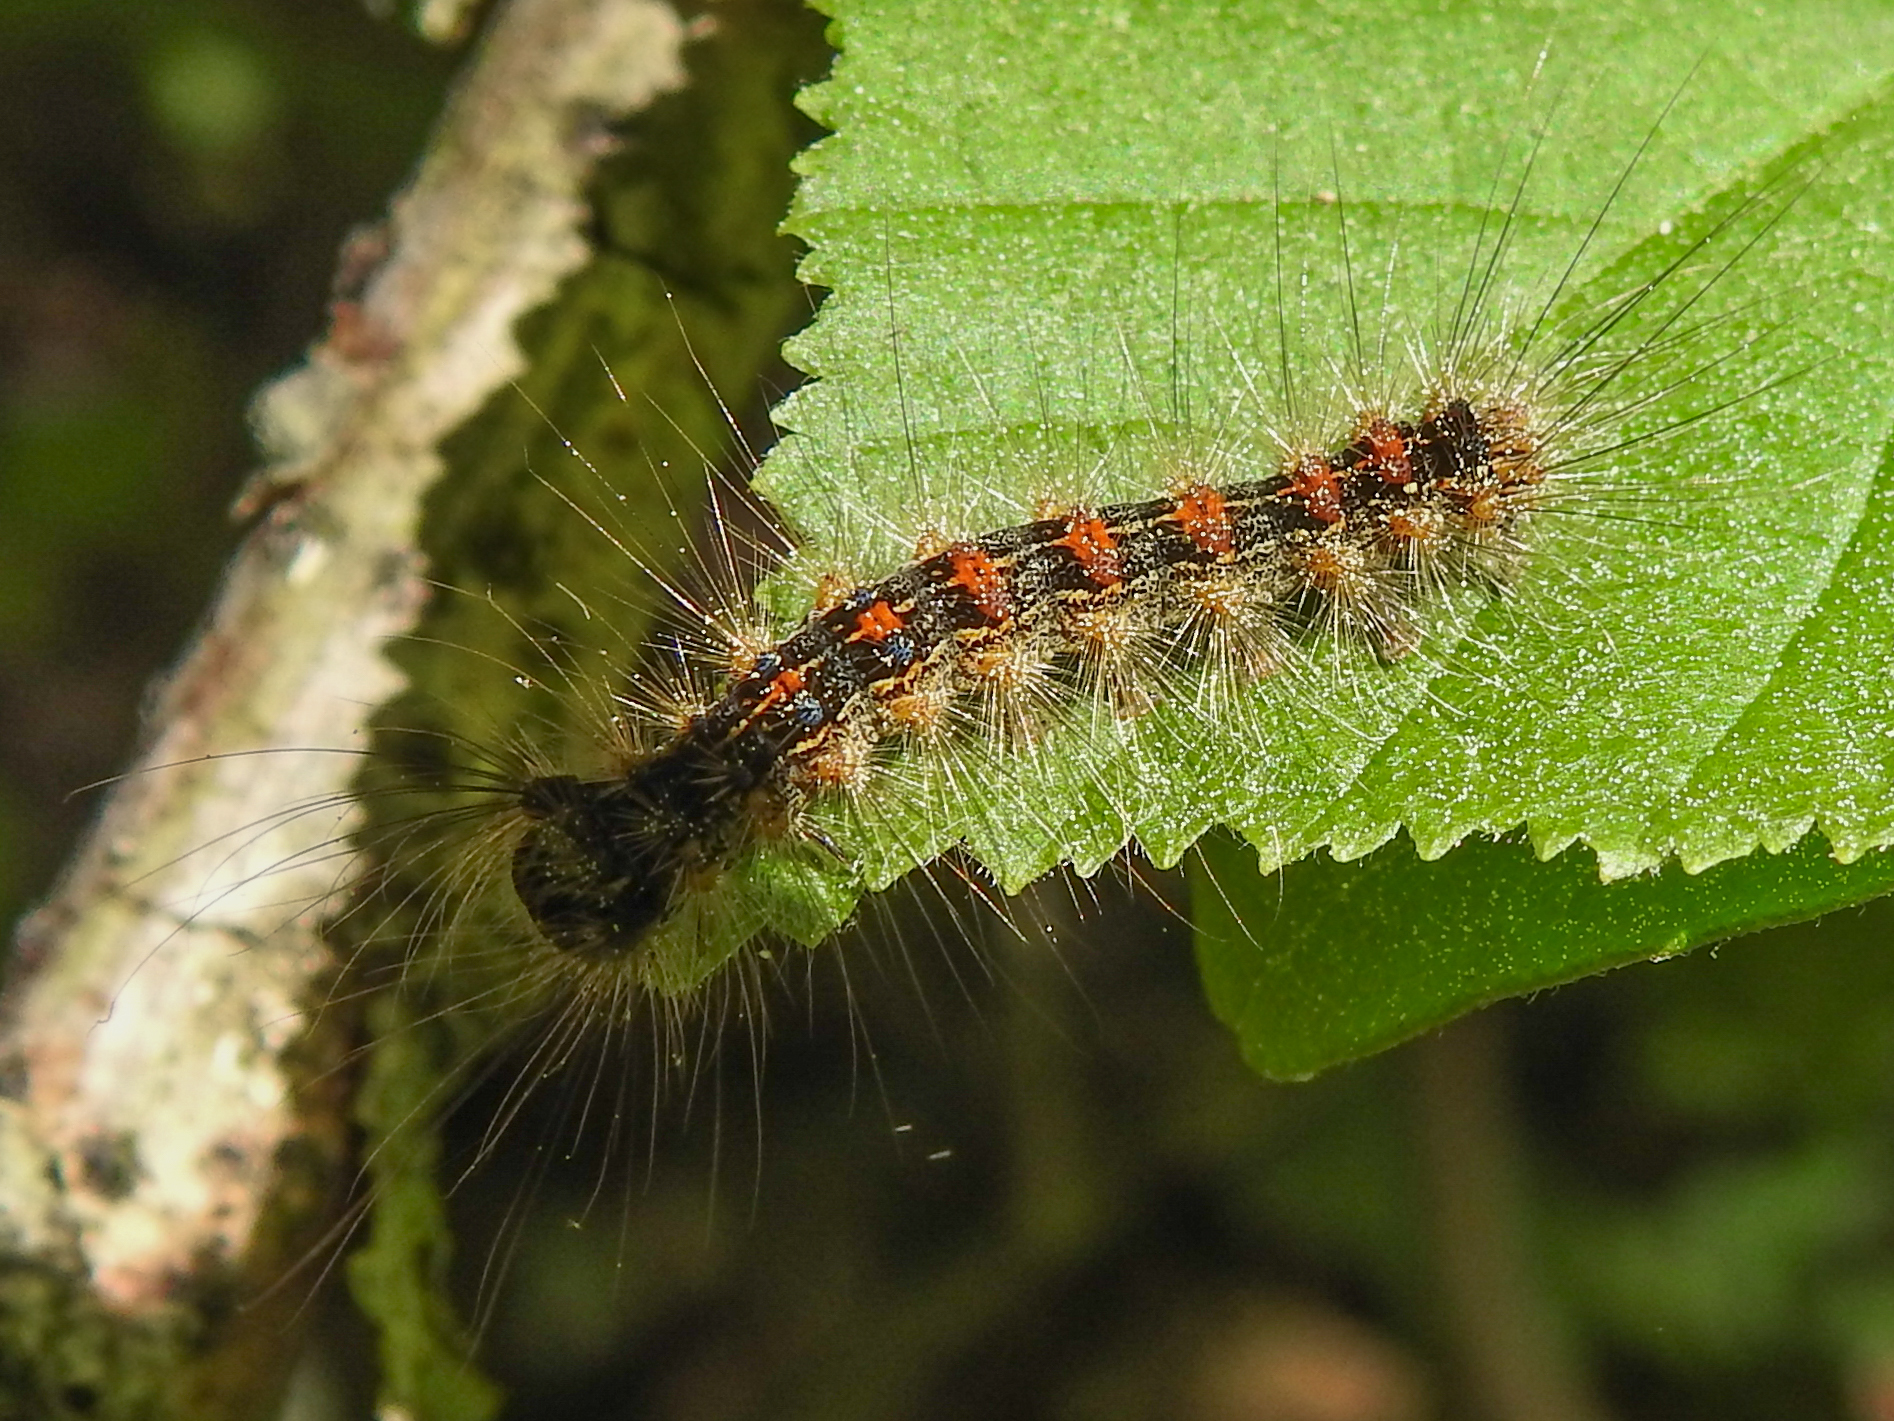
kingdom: Animalia
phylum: Arthropoda
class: Insecta
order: Lepidoptera
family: Erebidae
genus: Lymantria
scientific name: Lymantria dispar
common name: Gypsy moth
